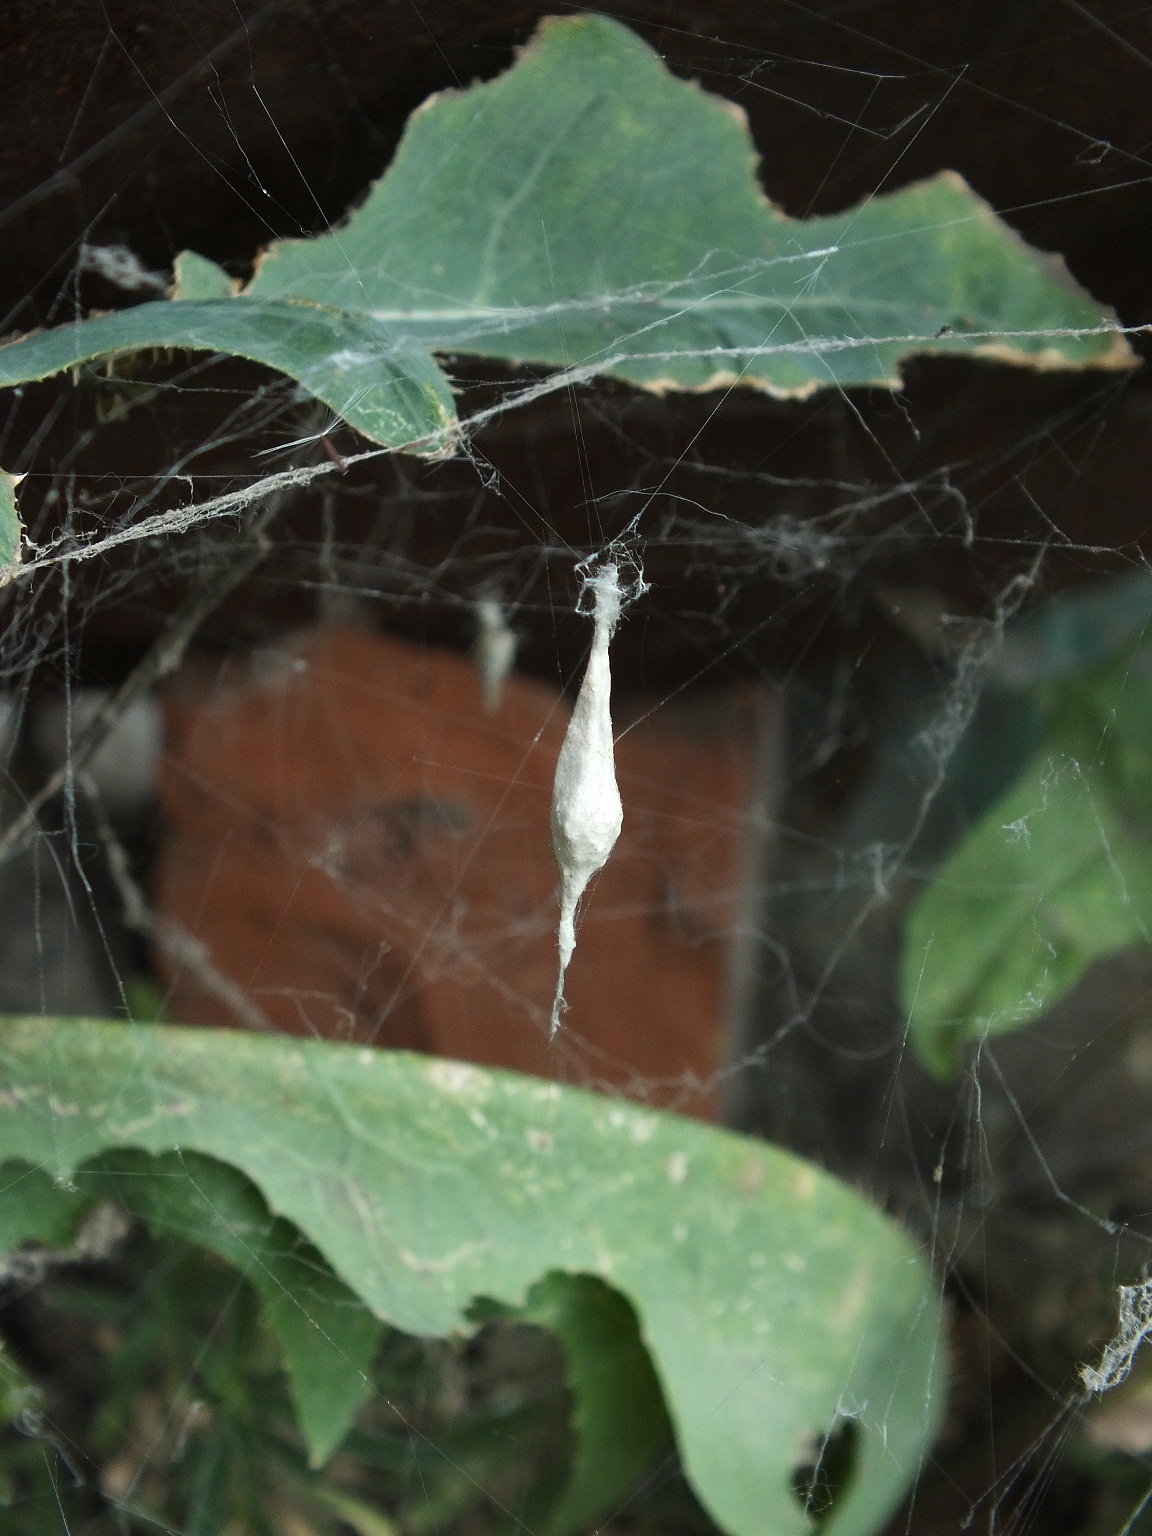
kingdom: Animalia
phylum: Arthropoda
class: Arachnida
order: Araneae
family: Uloboridae
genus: Uloborus
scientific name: Uloborus walckenaerius
